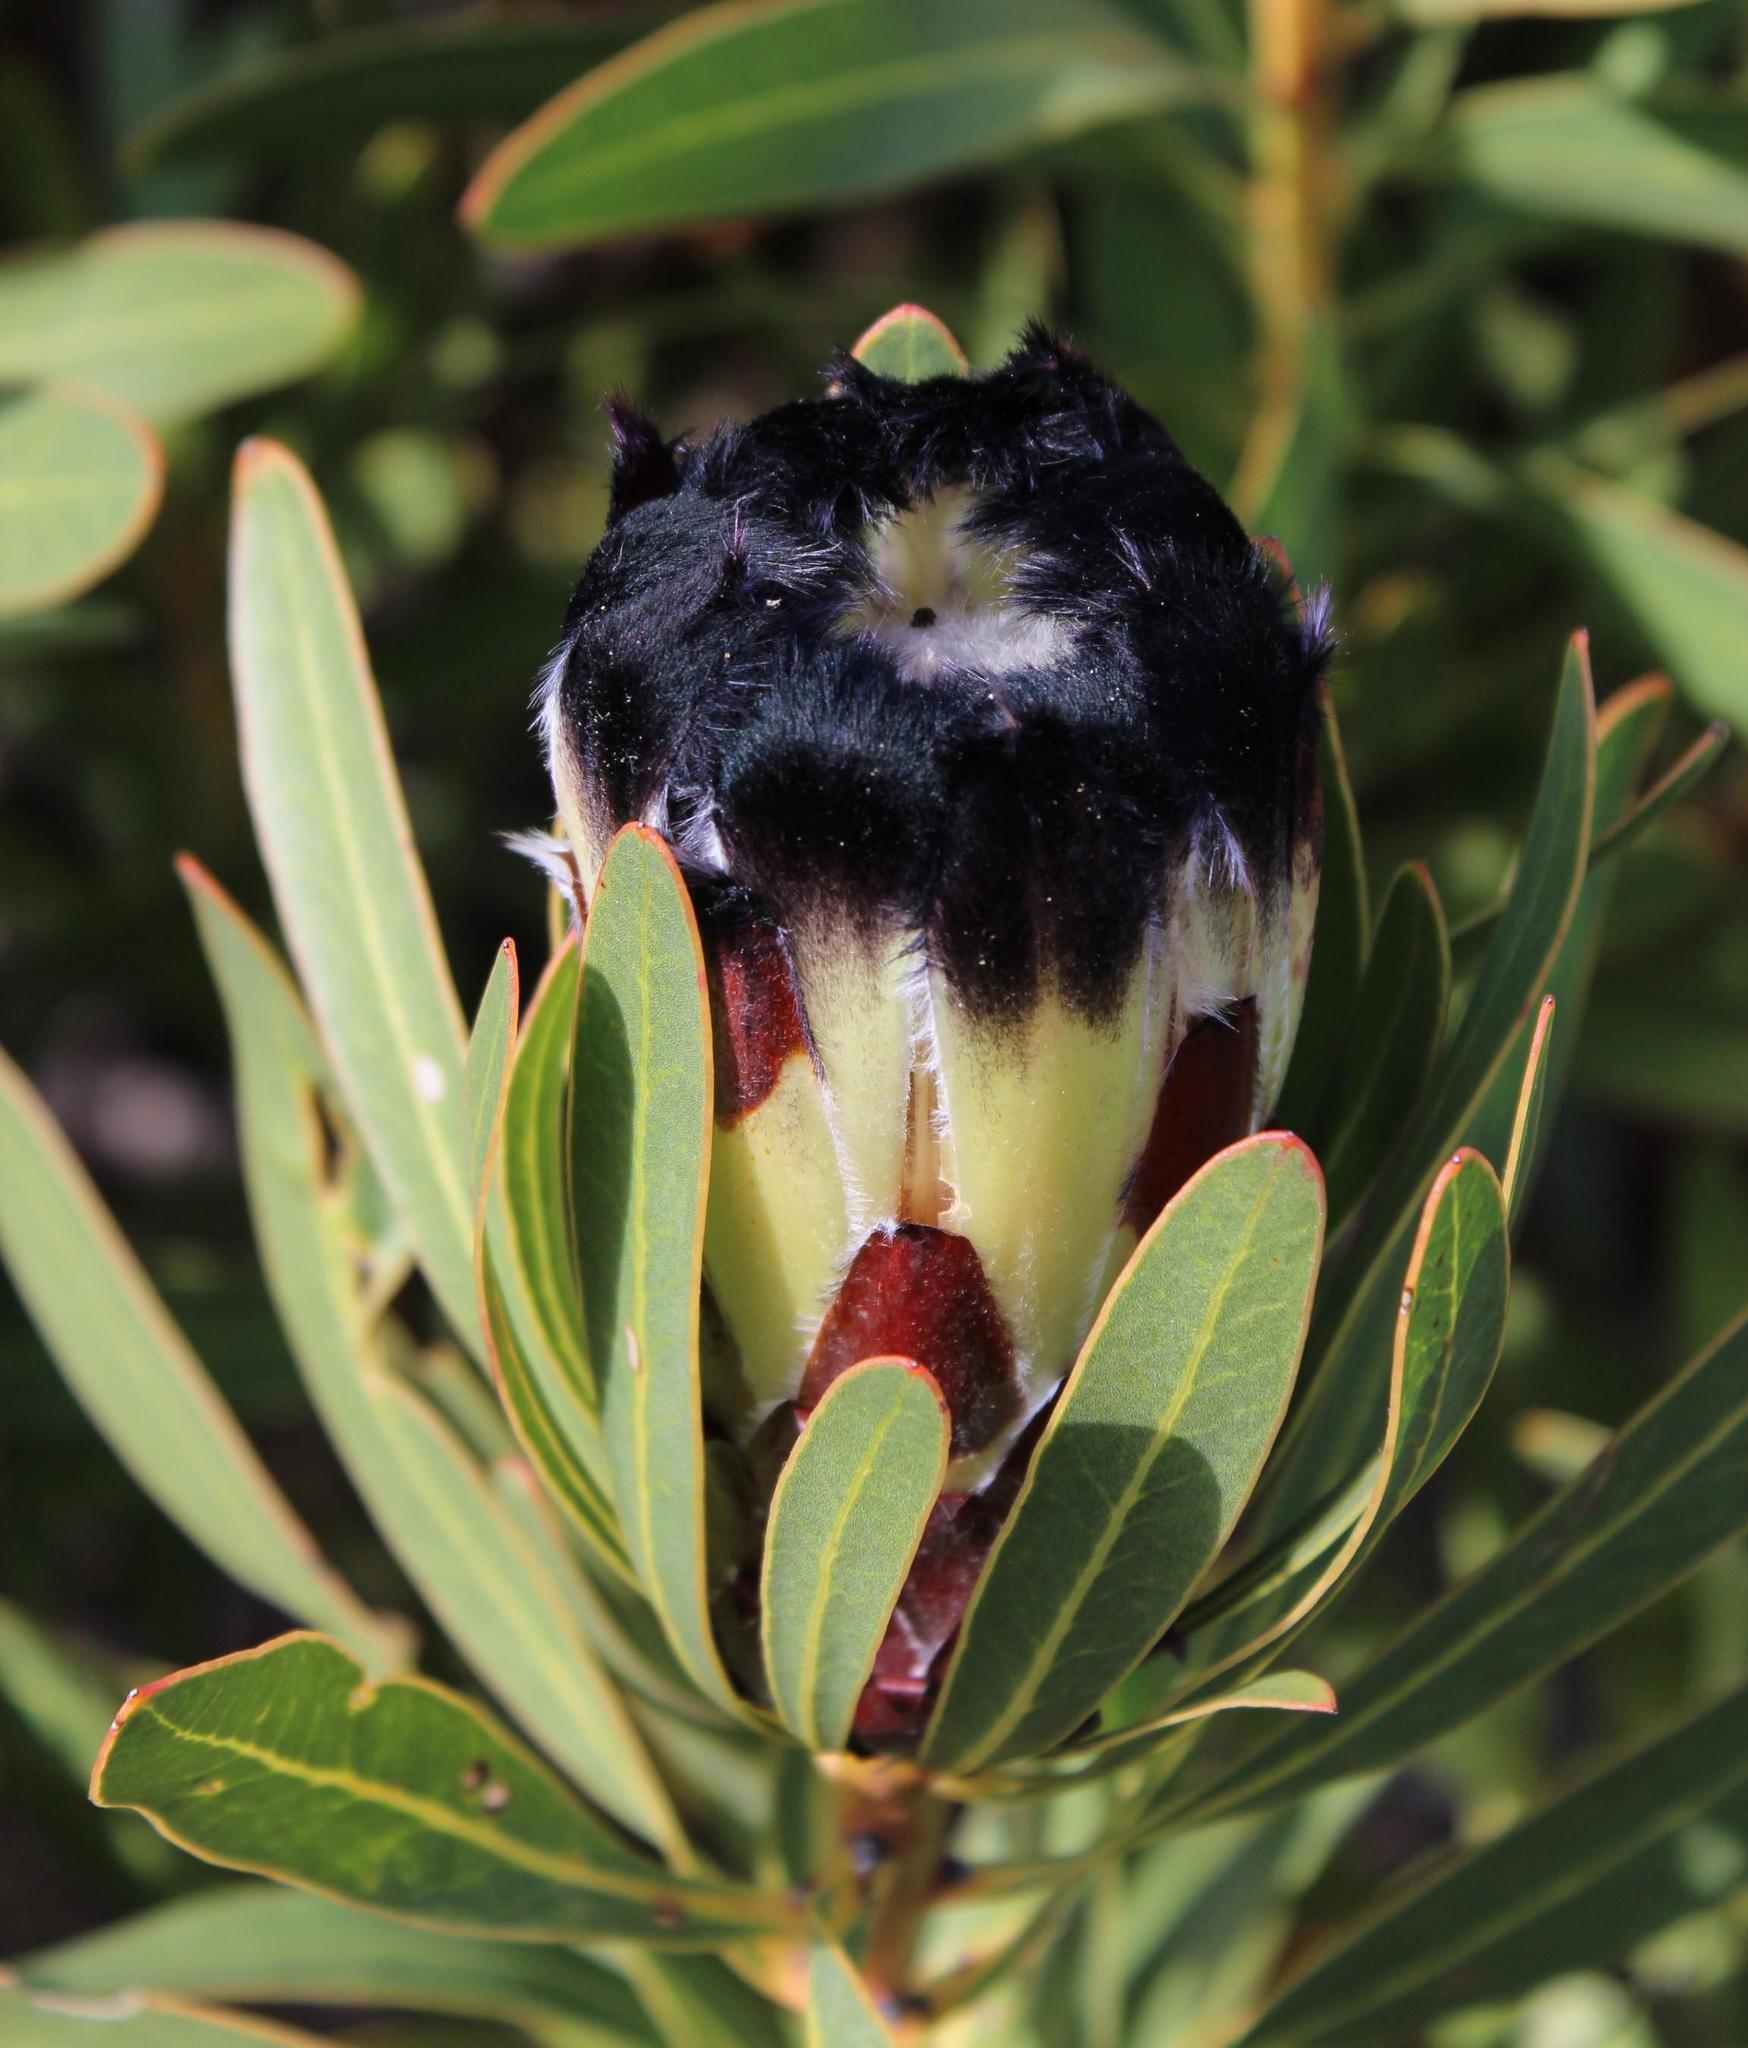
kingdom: Plantae
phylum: Tracheophyta
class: Magnoliopsida
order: Proteales
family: Proteaceae
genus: Protea
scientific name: Protea lepidocarpodendron
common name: Black-bearded protea
